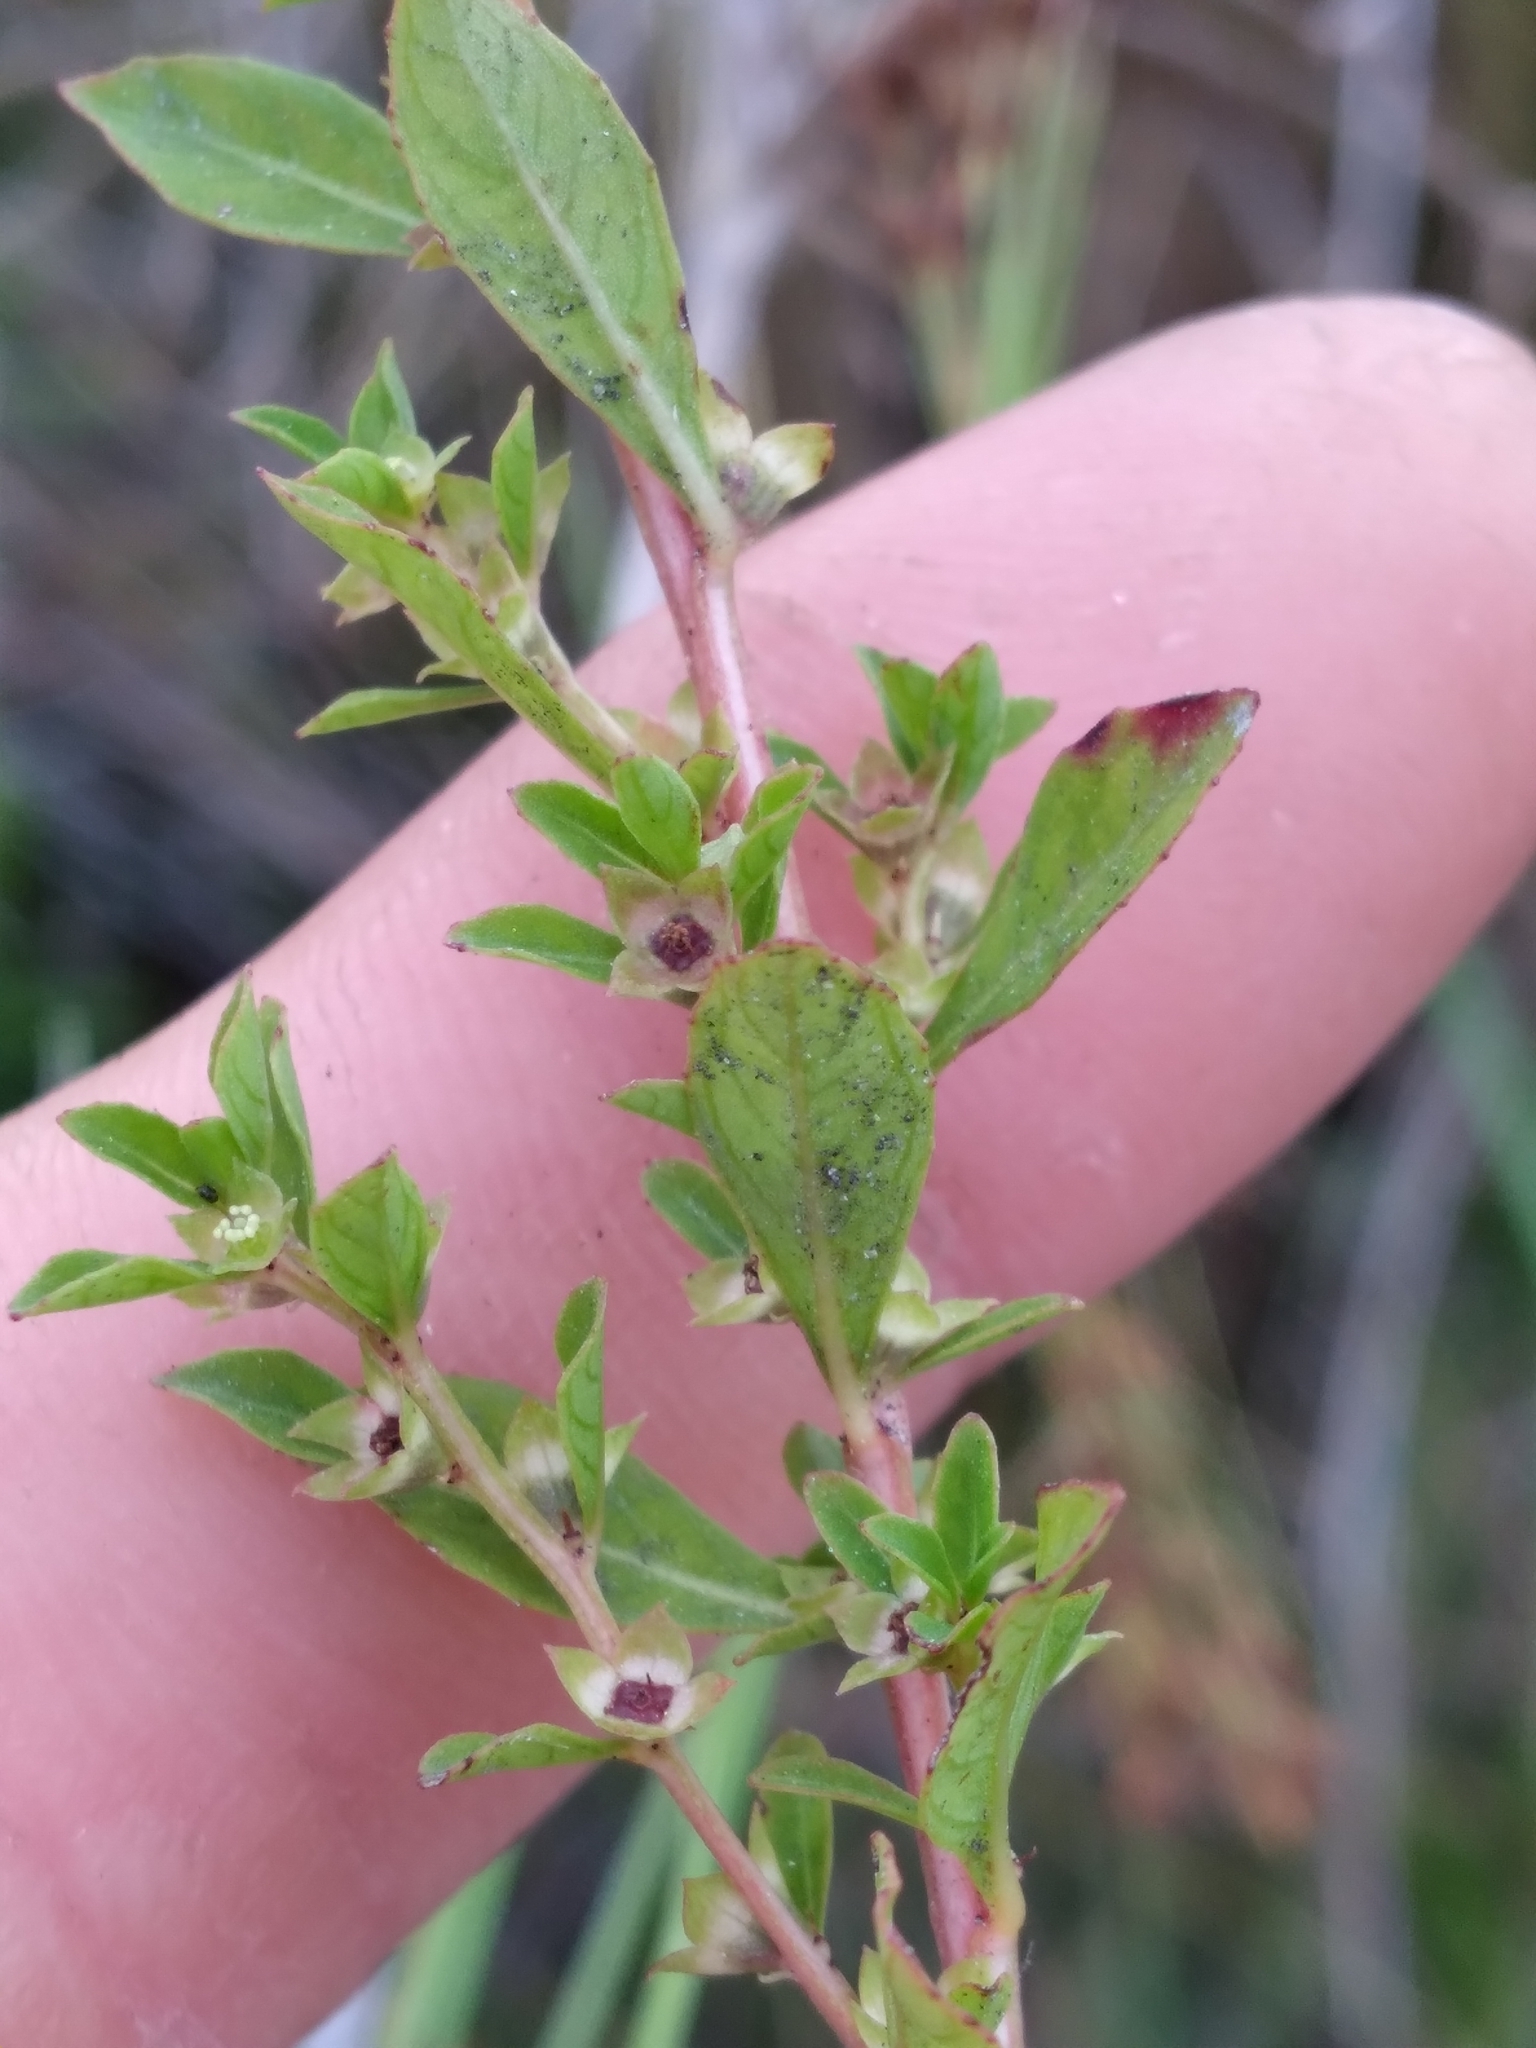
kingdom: Plantae
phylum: Tracheophyta
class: Magnoliopsida
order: Myrtales
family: Onagraceae
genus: Ludwigia
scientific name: Ludwigia microcarpa
